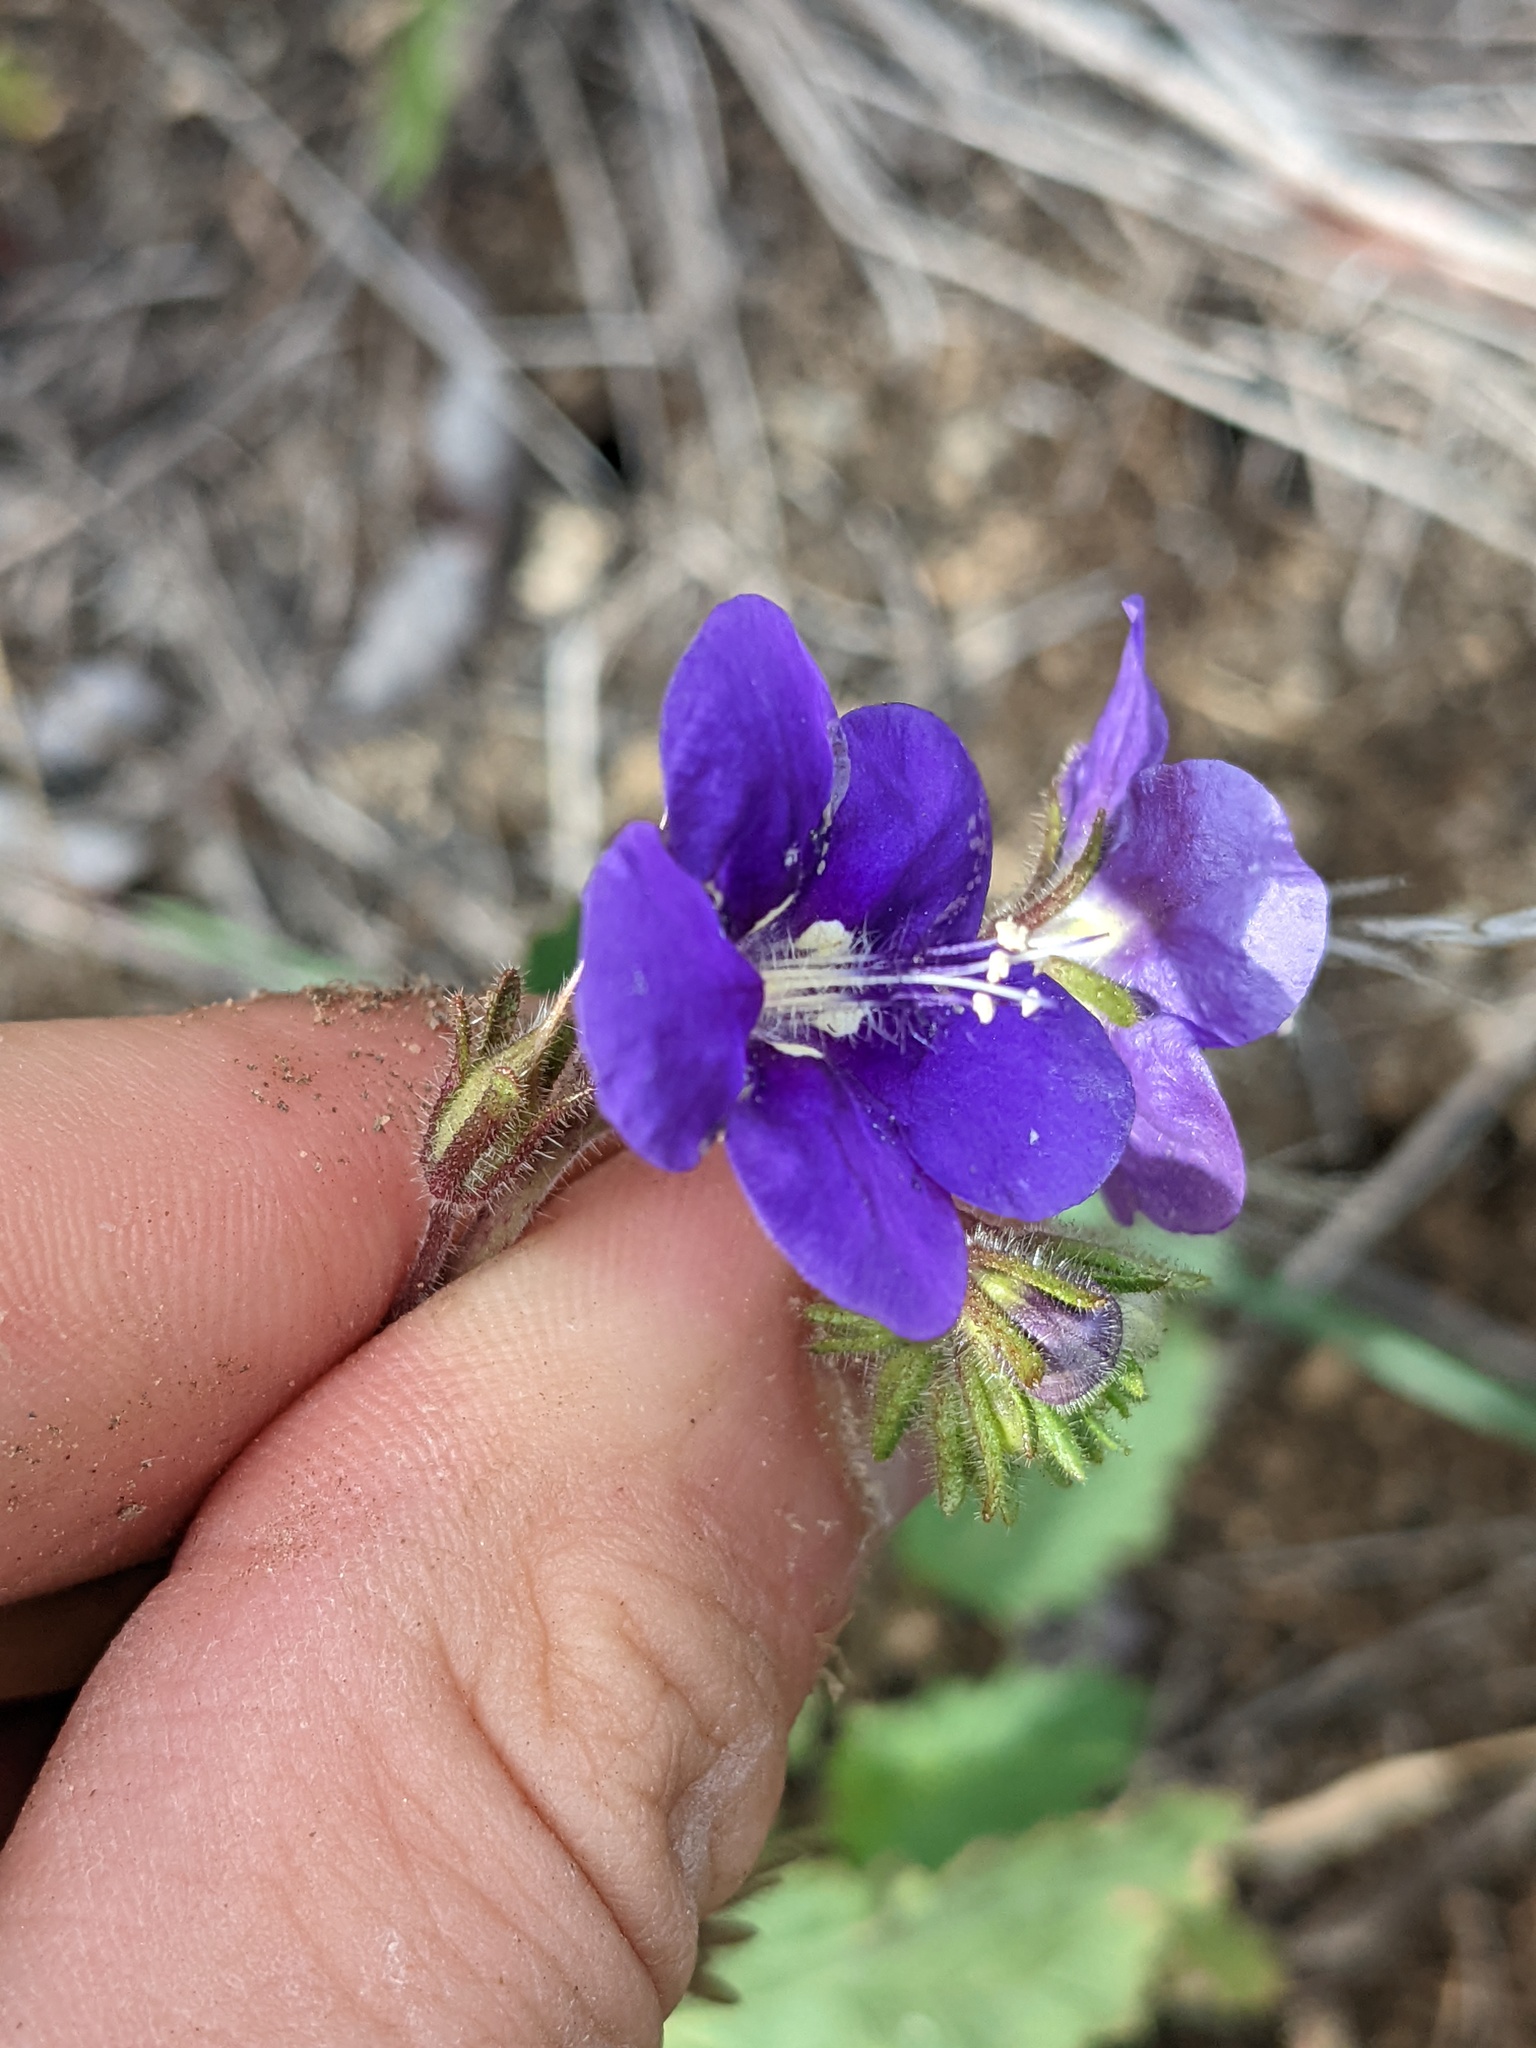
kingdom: Plantae
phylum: Tracheophyta
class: Magnoliopsida
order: Boraginales
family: Hydrophyllaceae
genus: Phacelia
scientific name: Phacelia parryi
